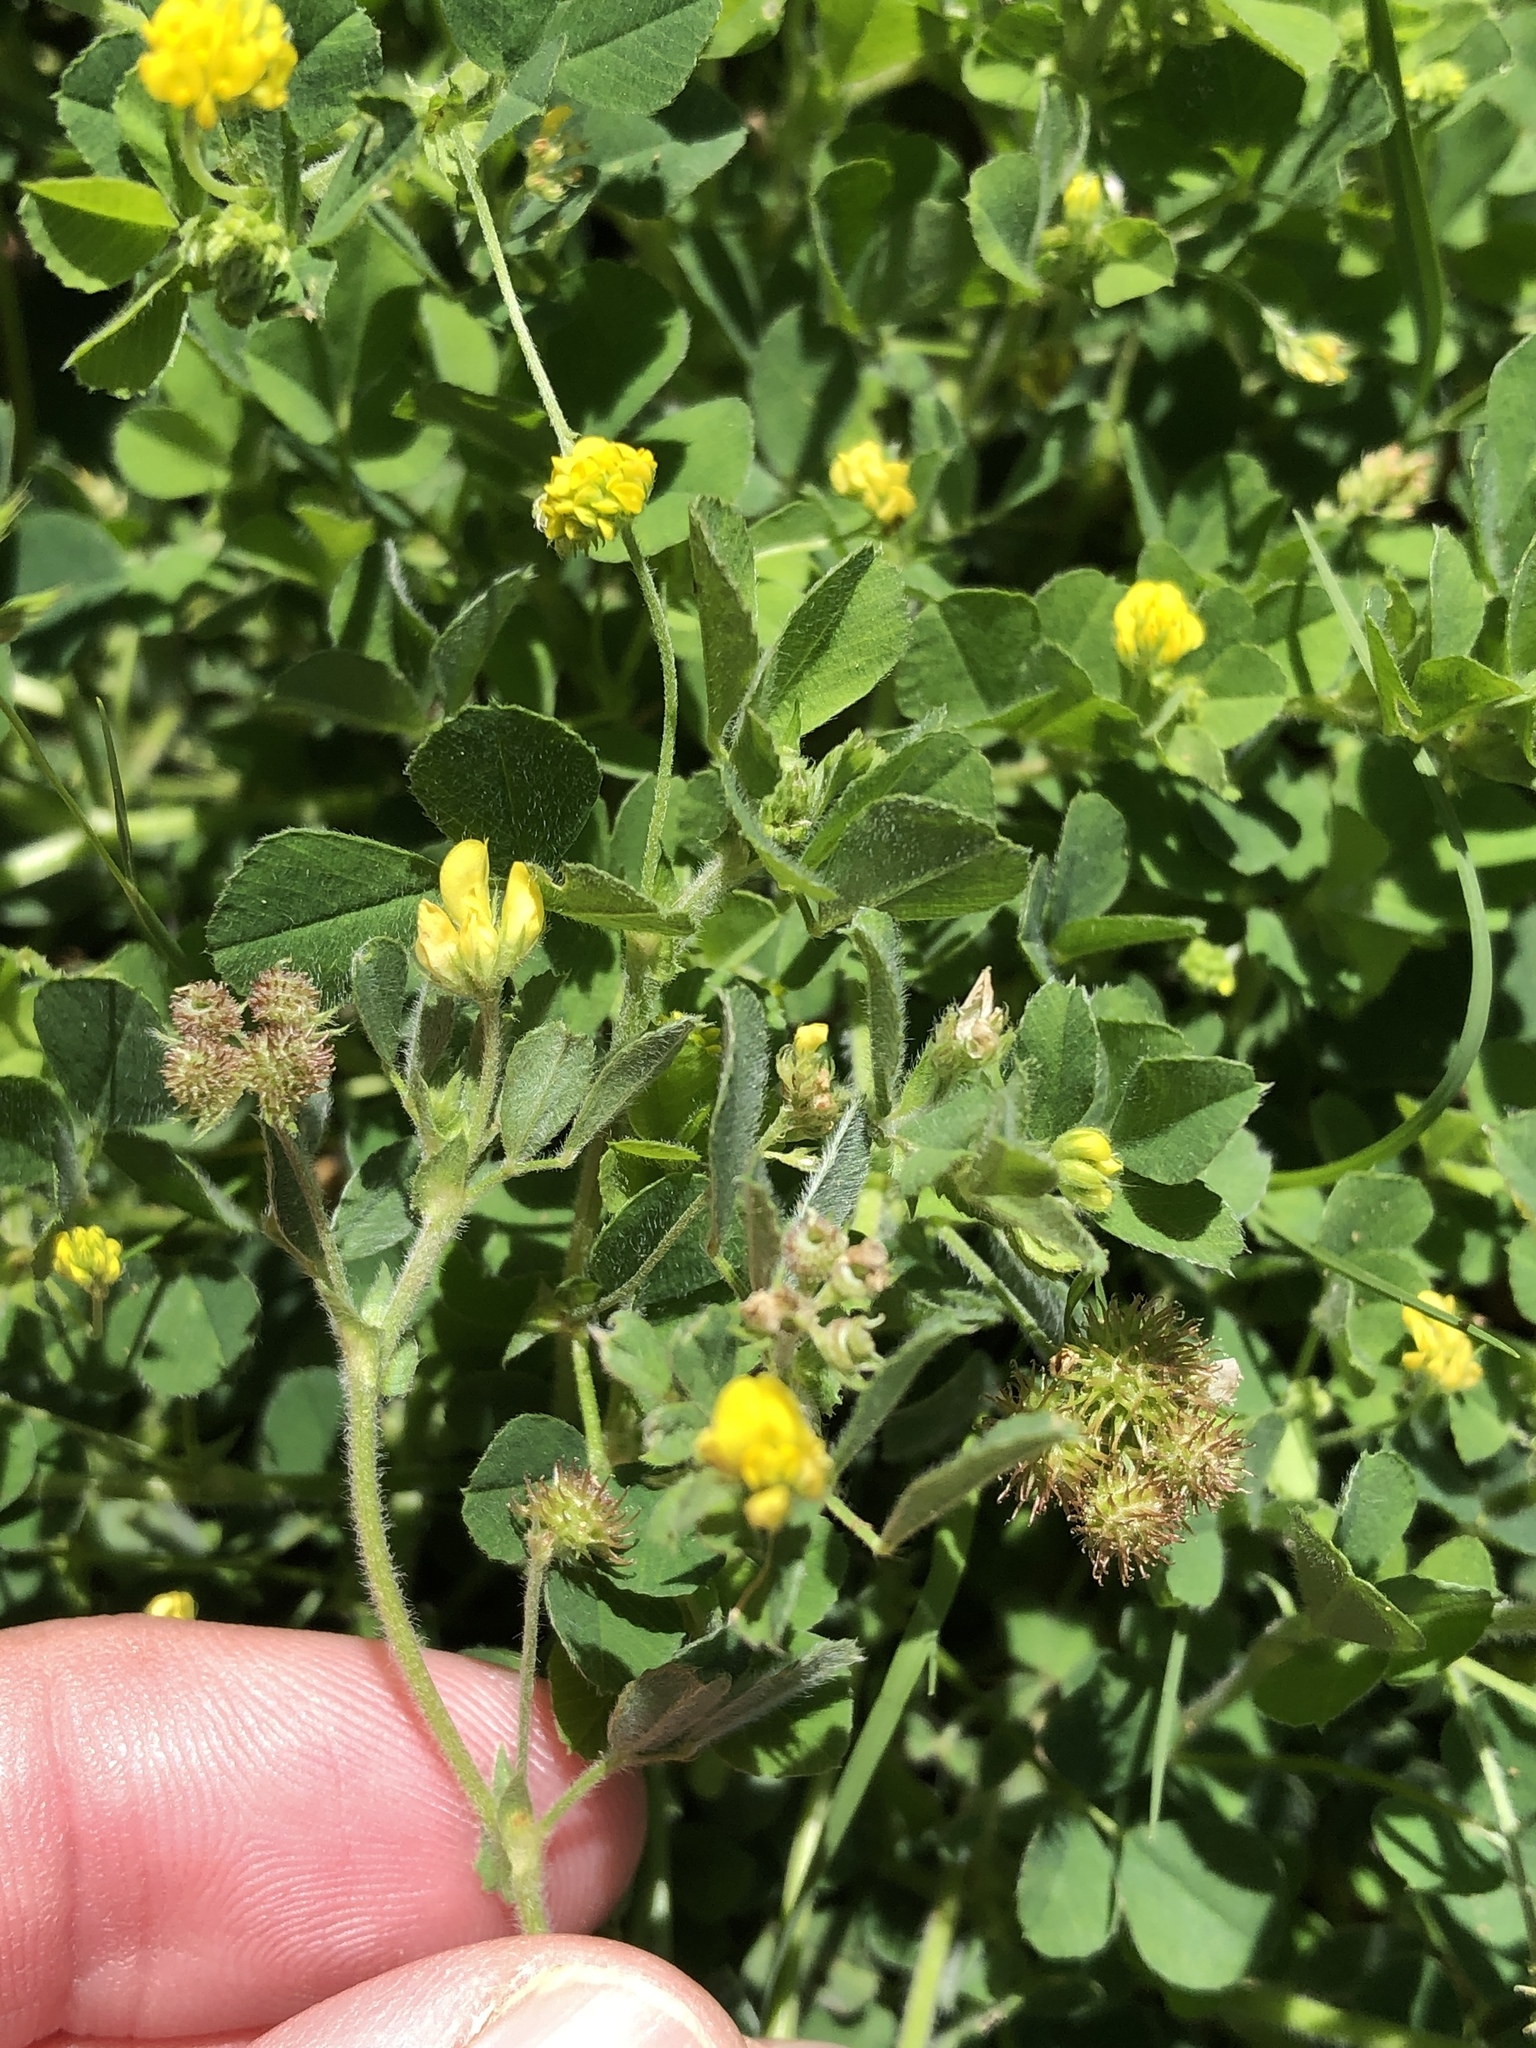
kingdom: Plantae
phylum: Tracheophyta
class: Magnoliopsida
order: Fabales
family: Fabaceae
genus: Medicago
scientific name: Medicago minima
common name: Little bur-clover
